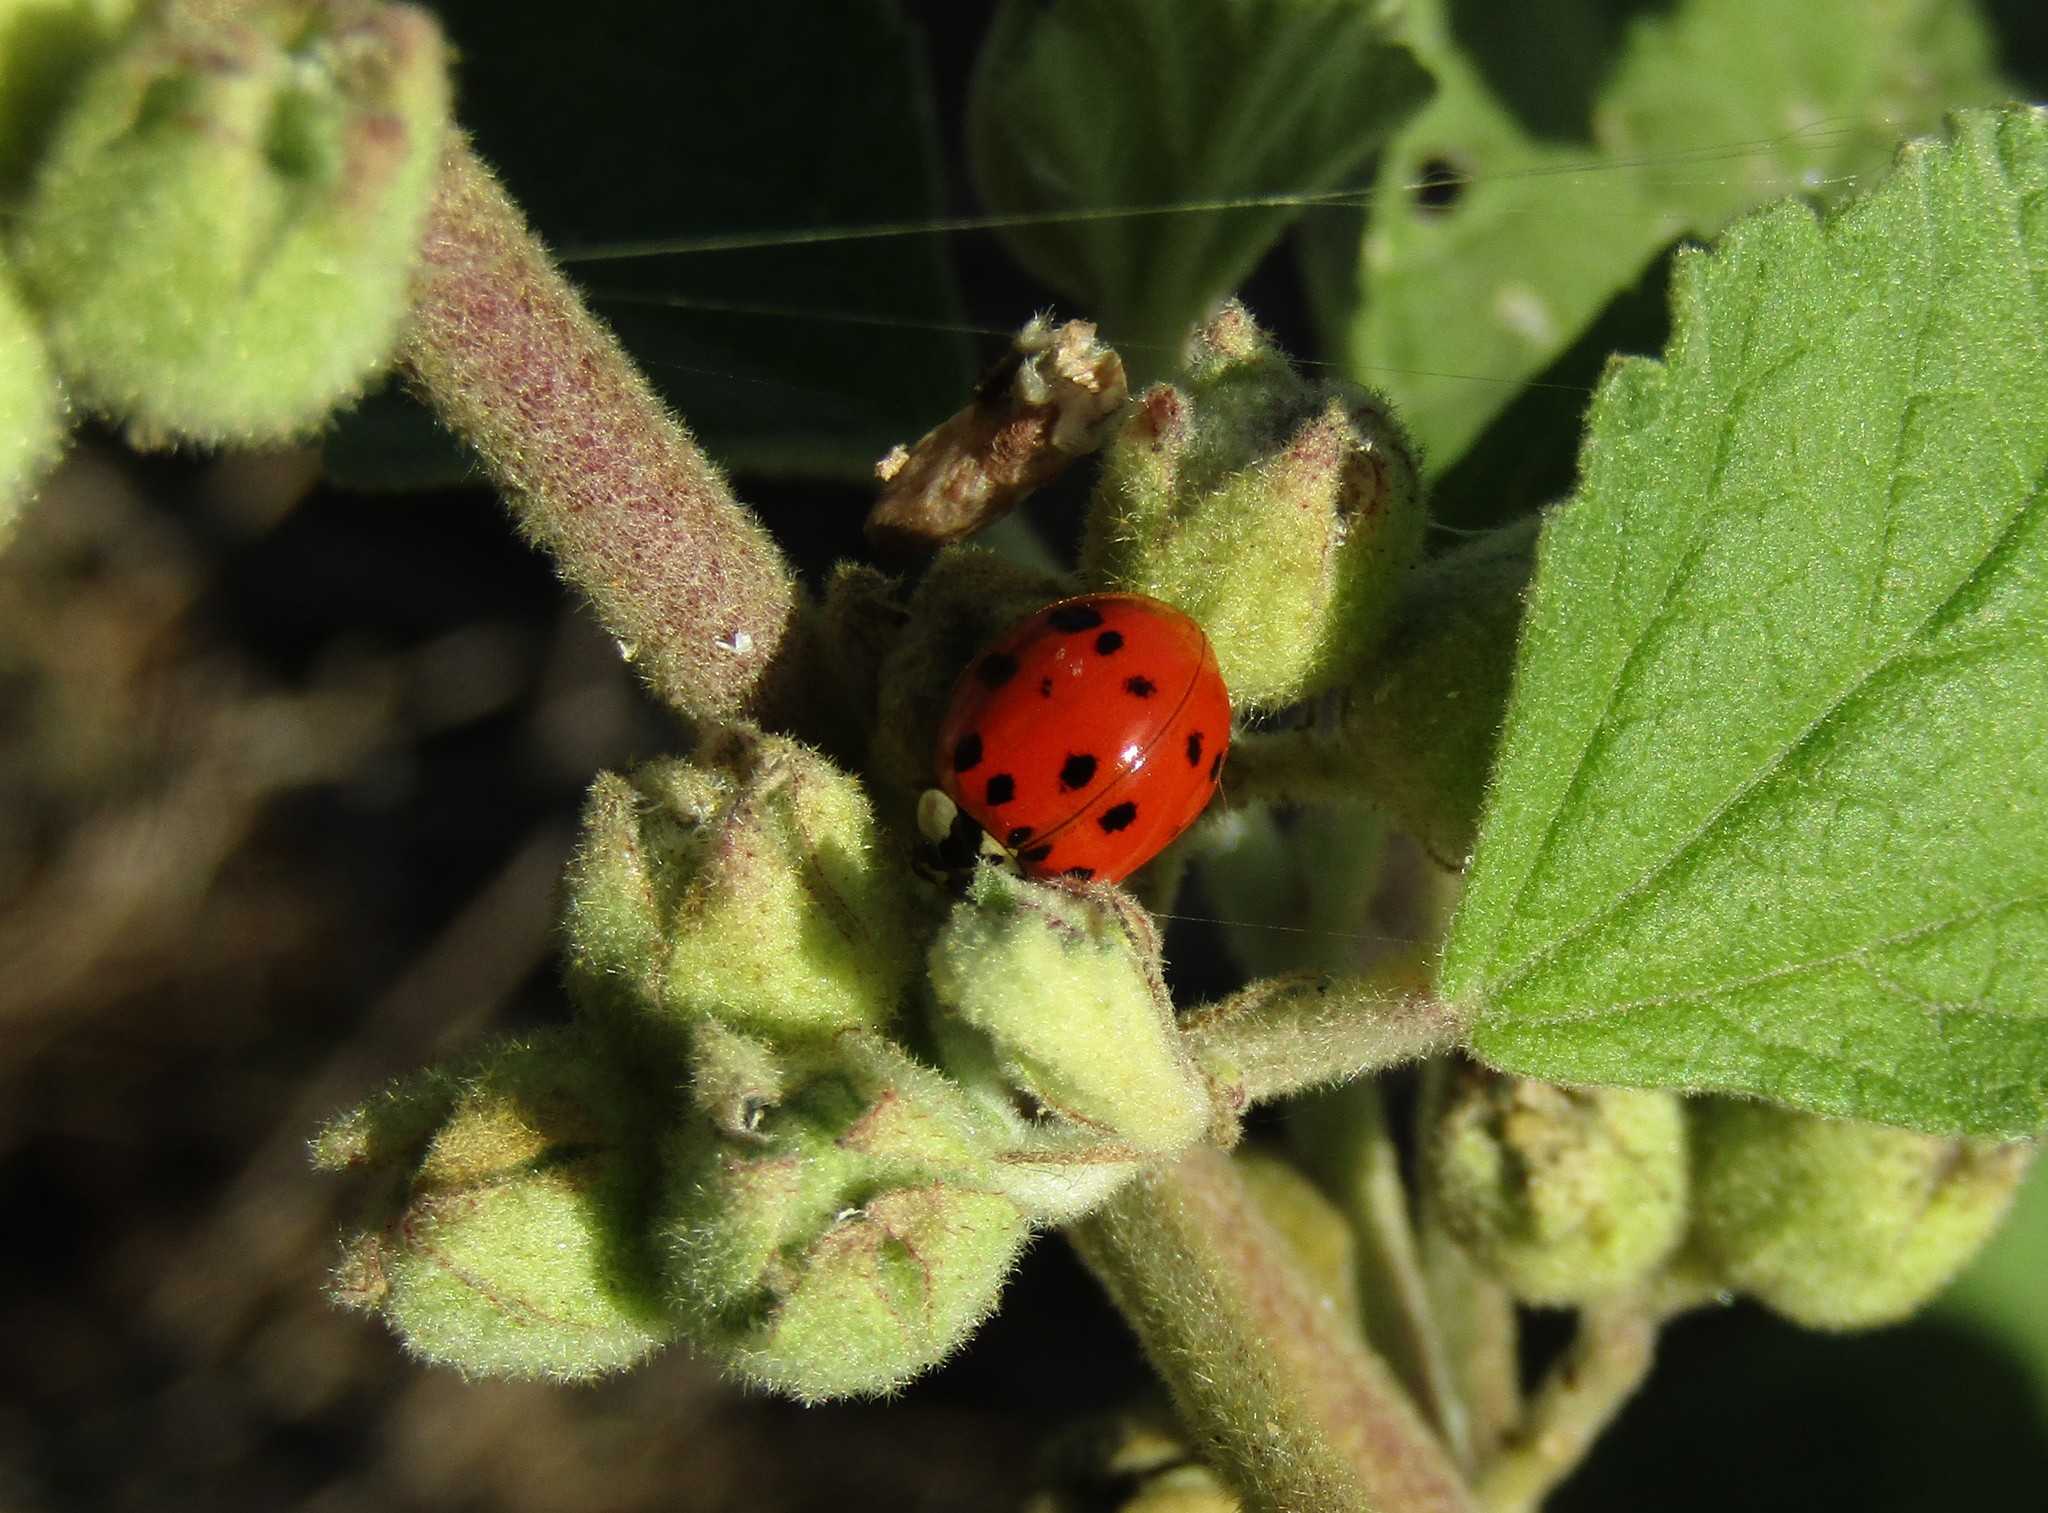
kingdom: Animalia
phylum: Arthropoda
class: Insecta
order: Coleoptera
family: Coccinellidae
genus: Harmonia
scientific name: Harmonia axyridis
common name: Harlequin ladybird
